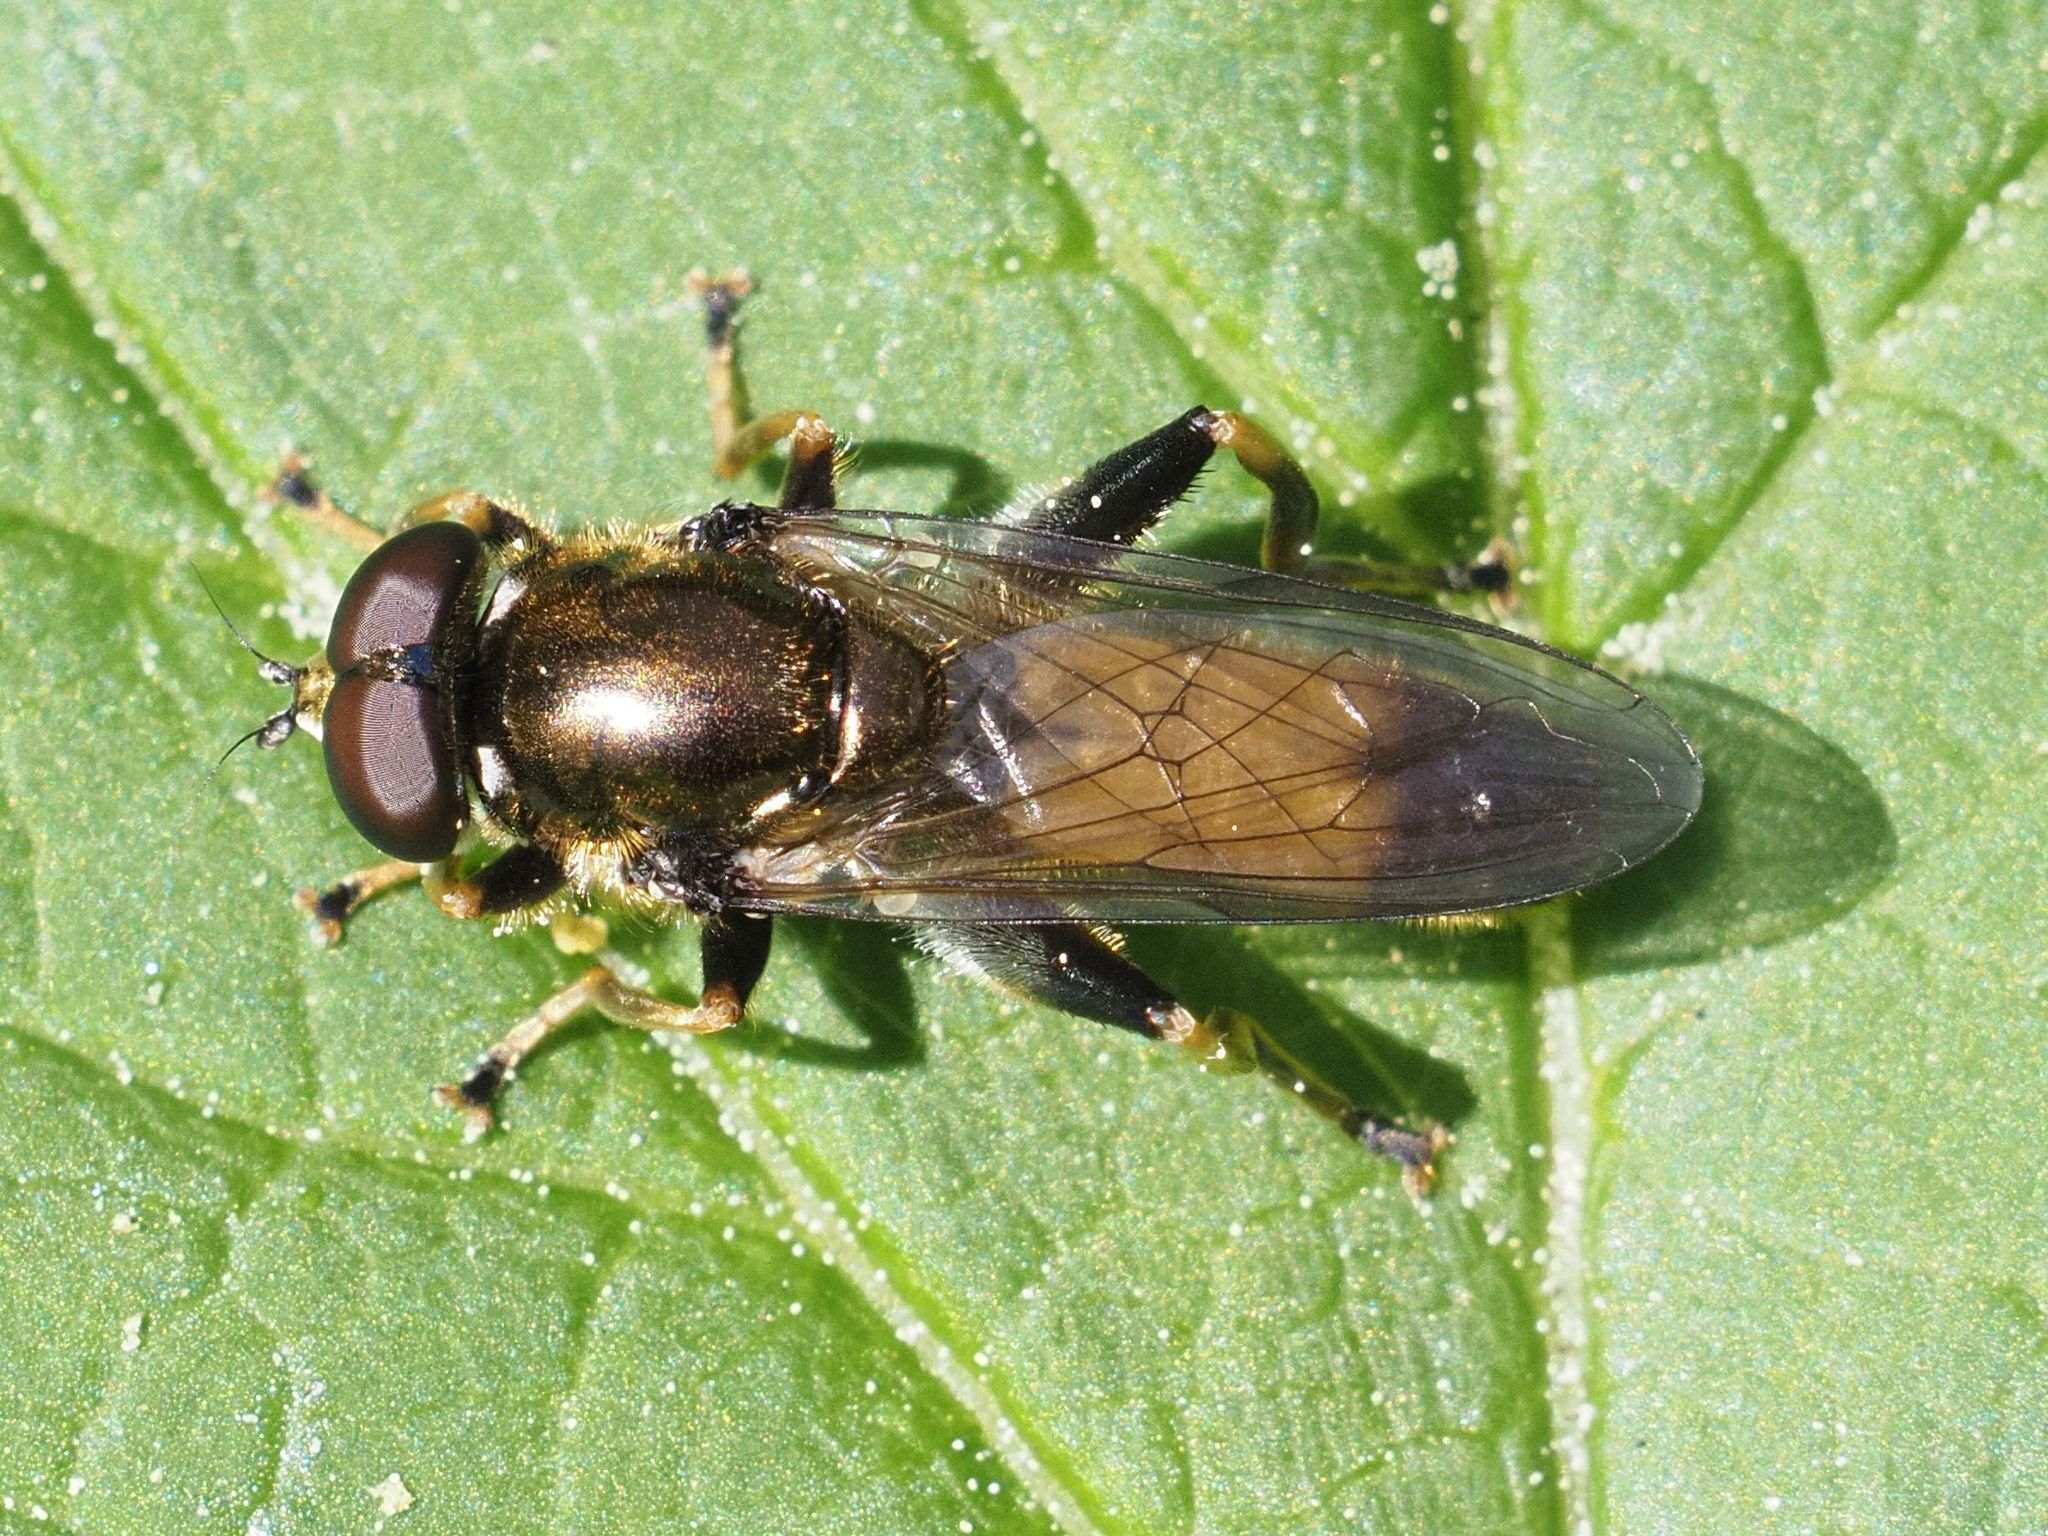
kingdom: Animalia
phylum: Arthropoda
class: Insecta
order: Diptera
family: Syrphidae
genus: Xylota
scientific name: Xylota segnis
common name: Brown-toed forest fly
